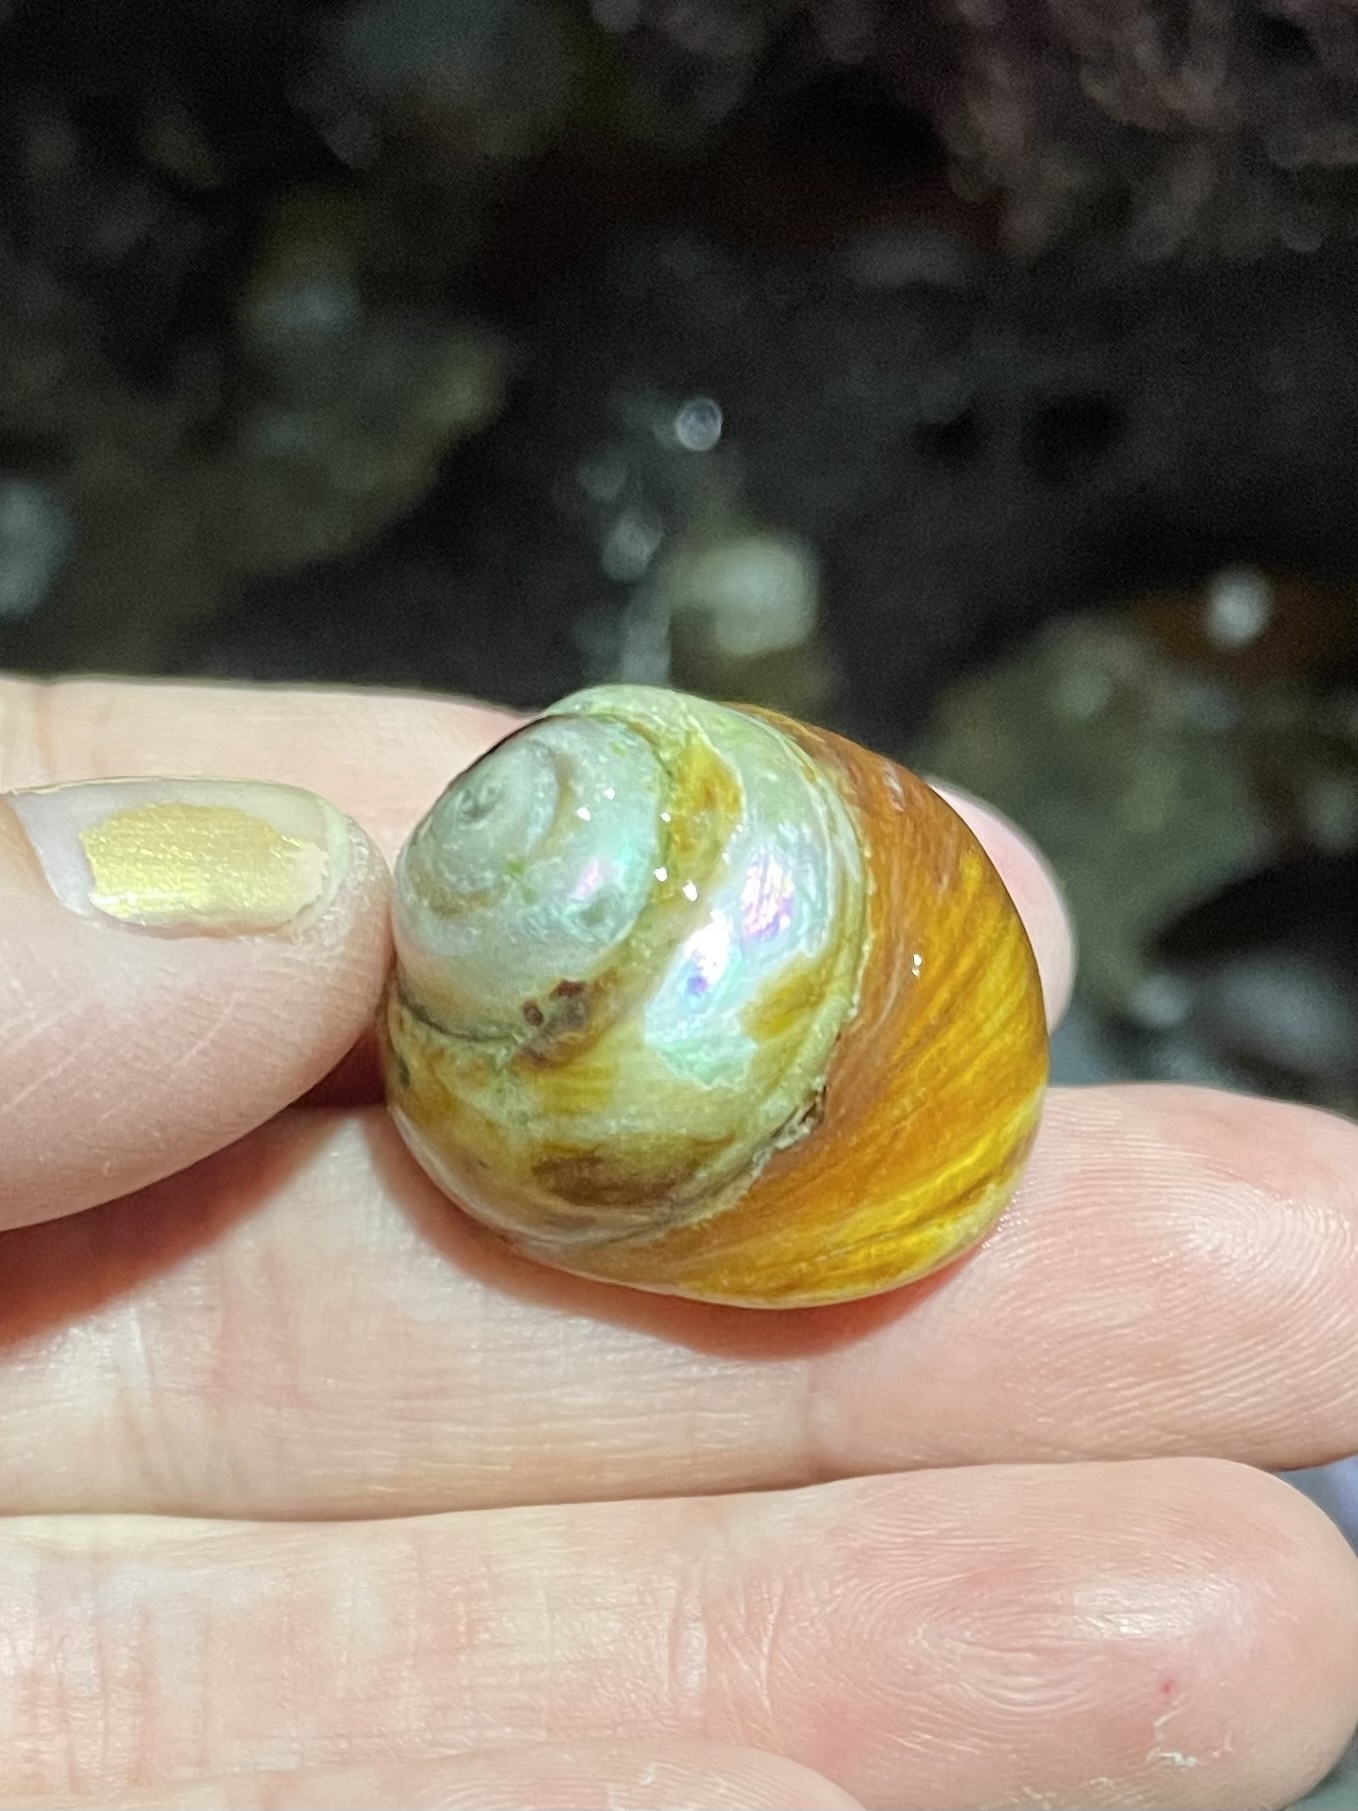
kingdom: Animalia
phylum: Mollusca
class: Gastropoda
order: Trochida
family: Tegulidae
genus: Tegula
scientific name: Tegula brunnea
